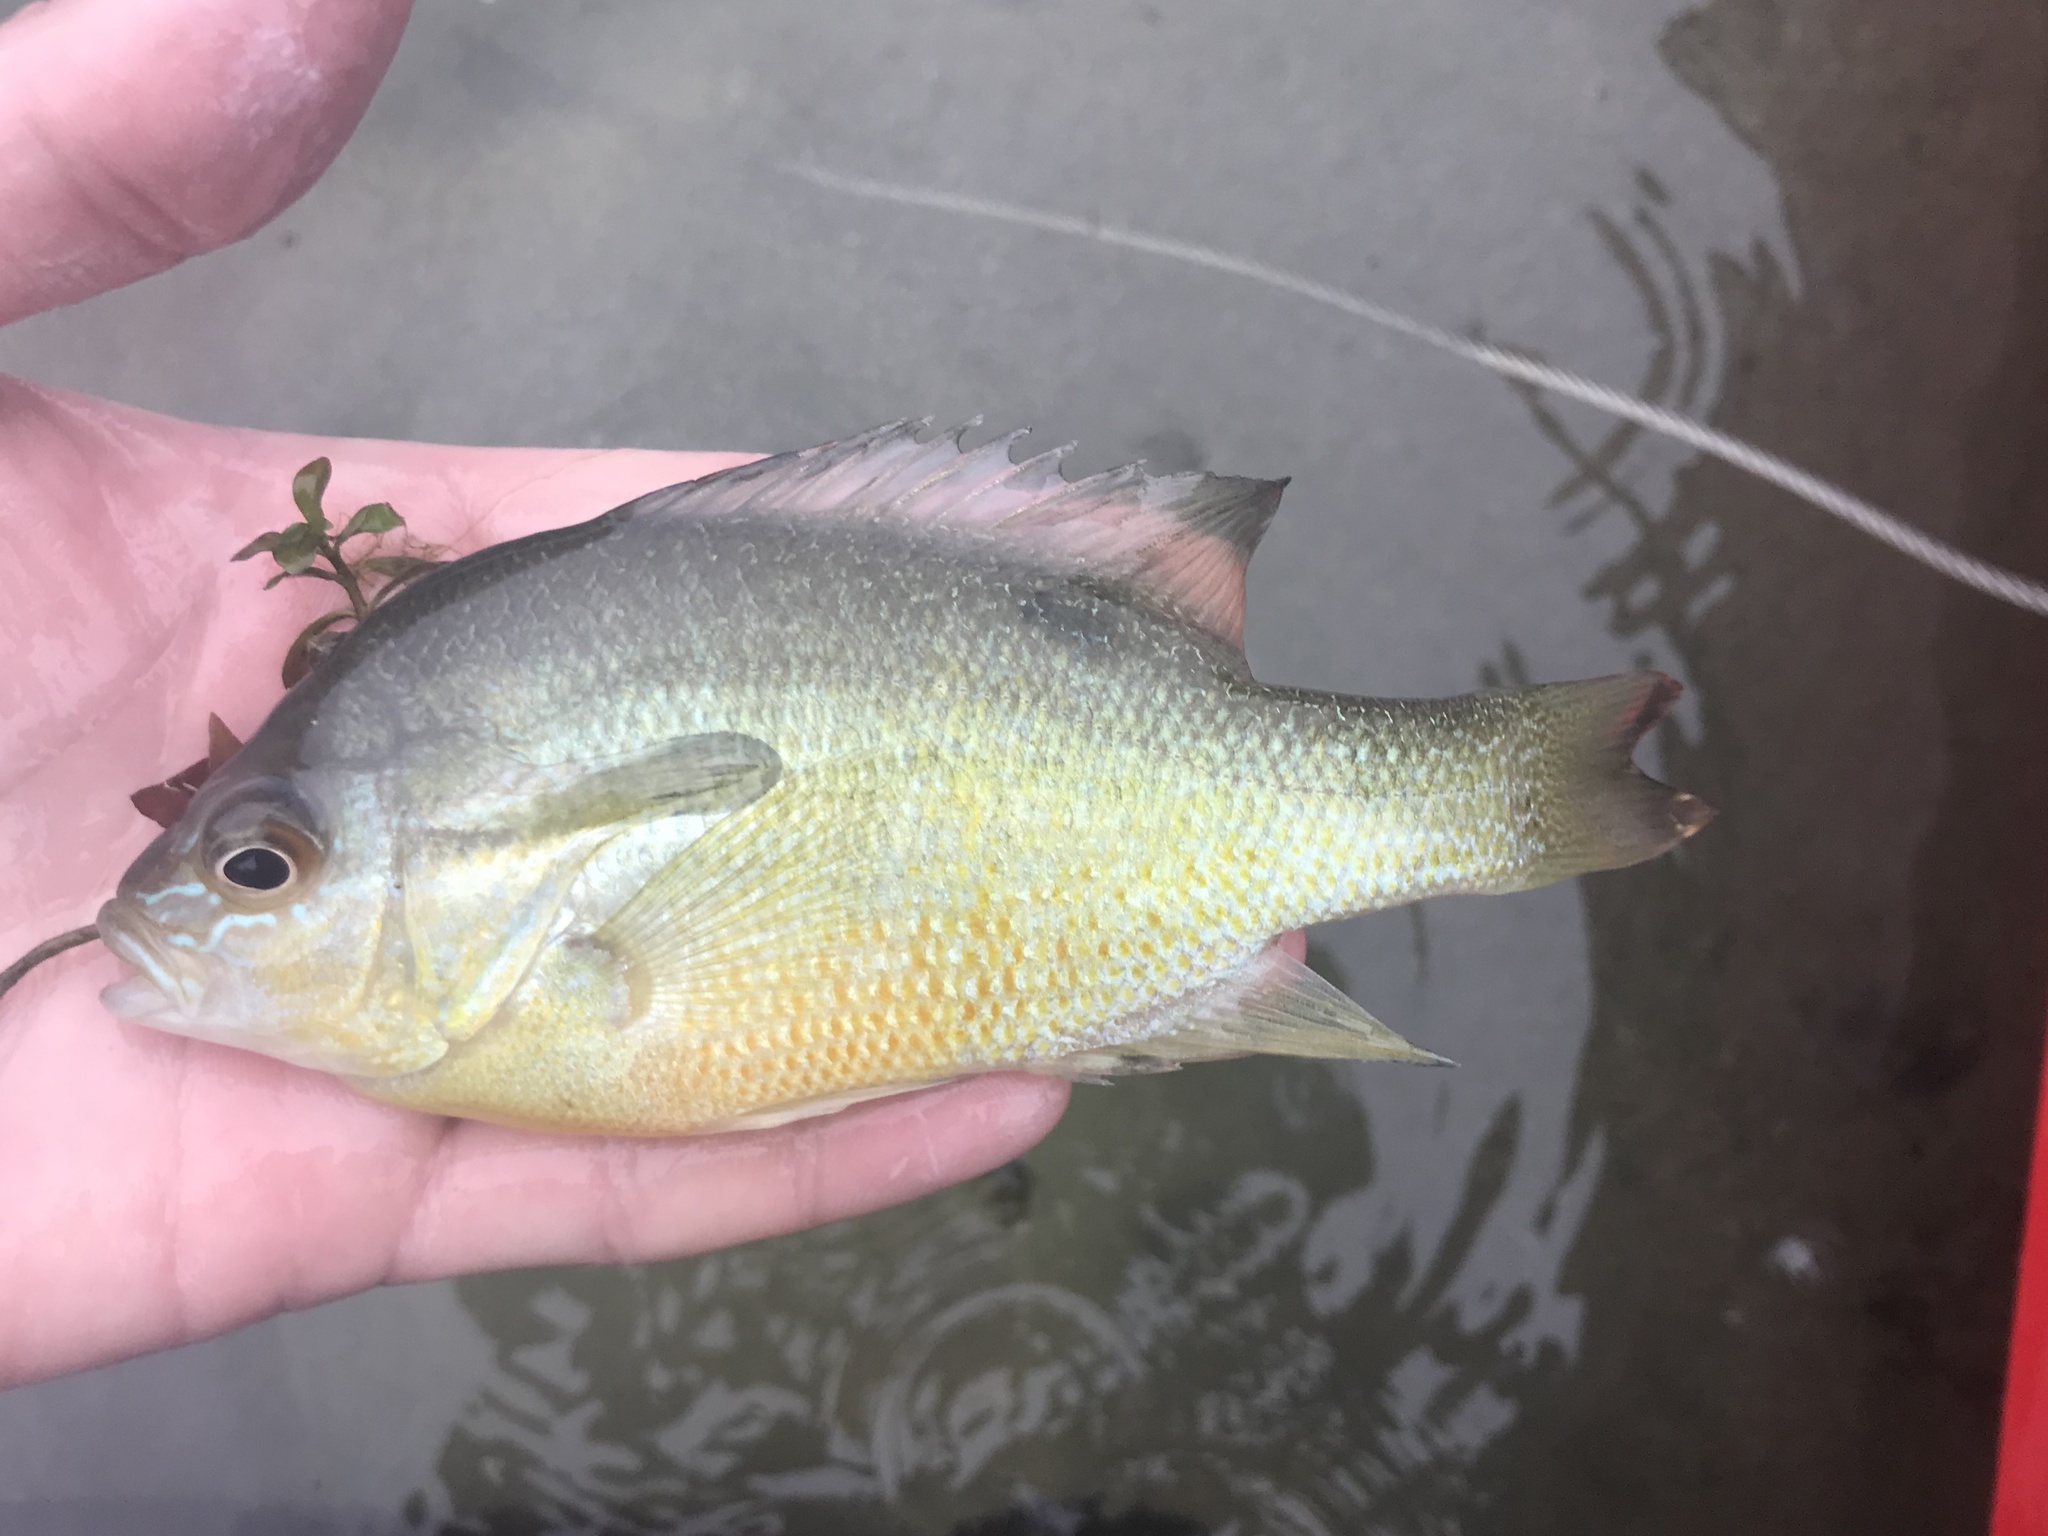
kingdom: Animalia
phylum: Chordata
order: Perciformes
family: Centrarchidae
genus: Lepomis
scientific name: Lepomis auritus
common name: Redbreast sunfish
